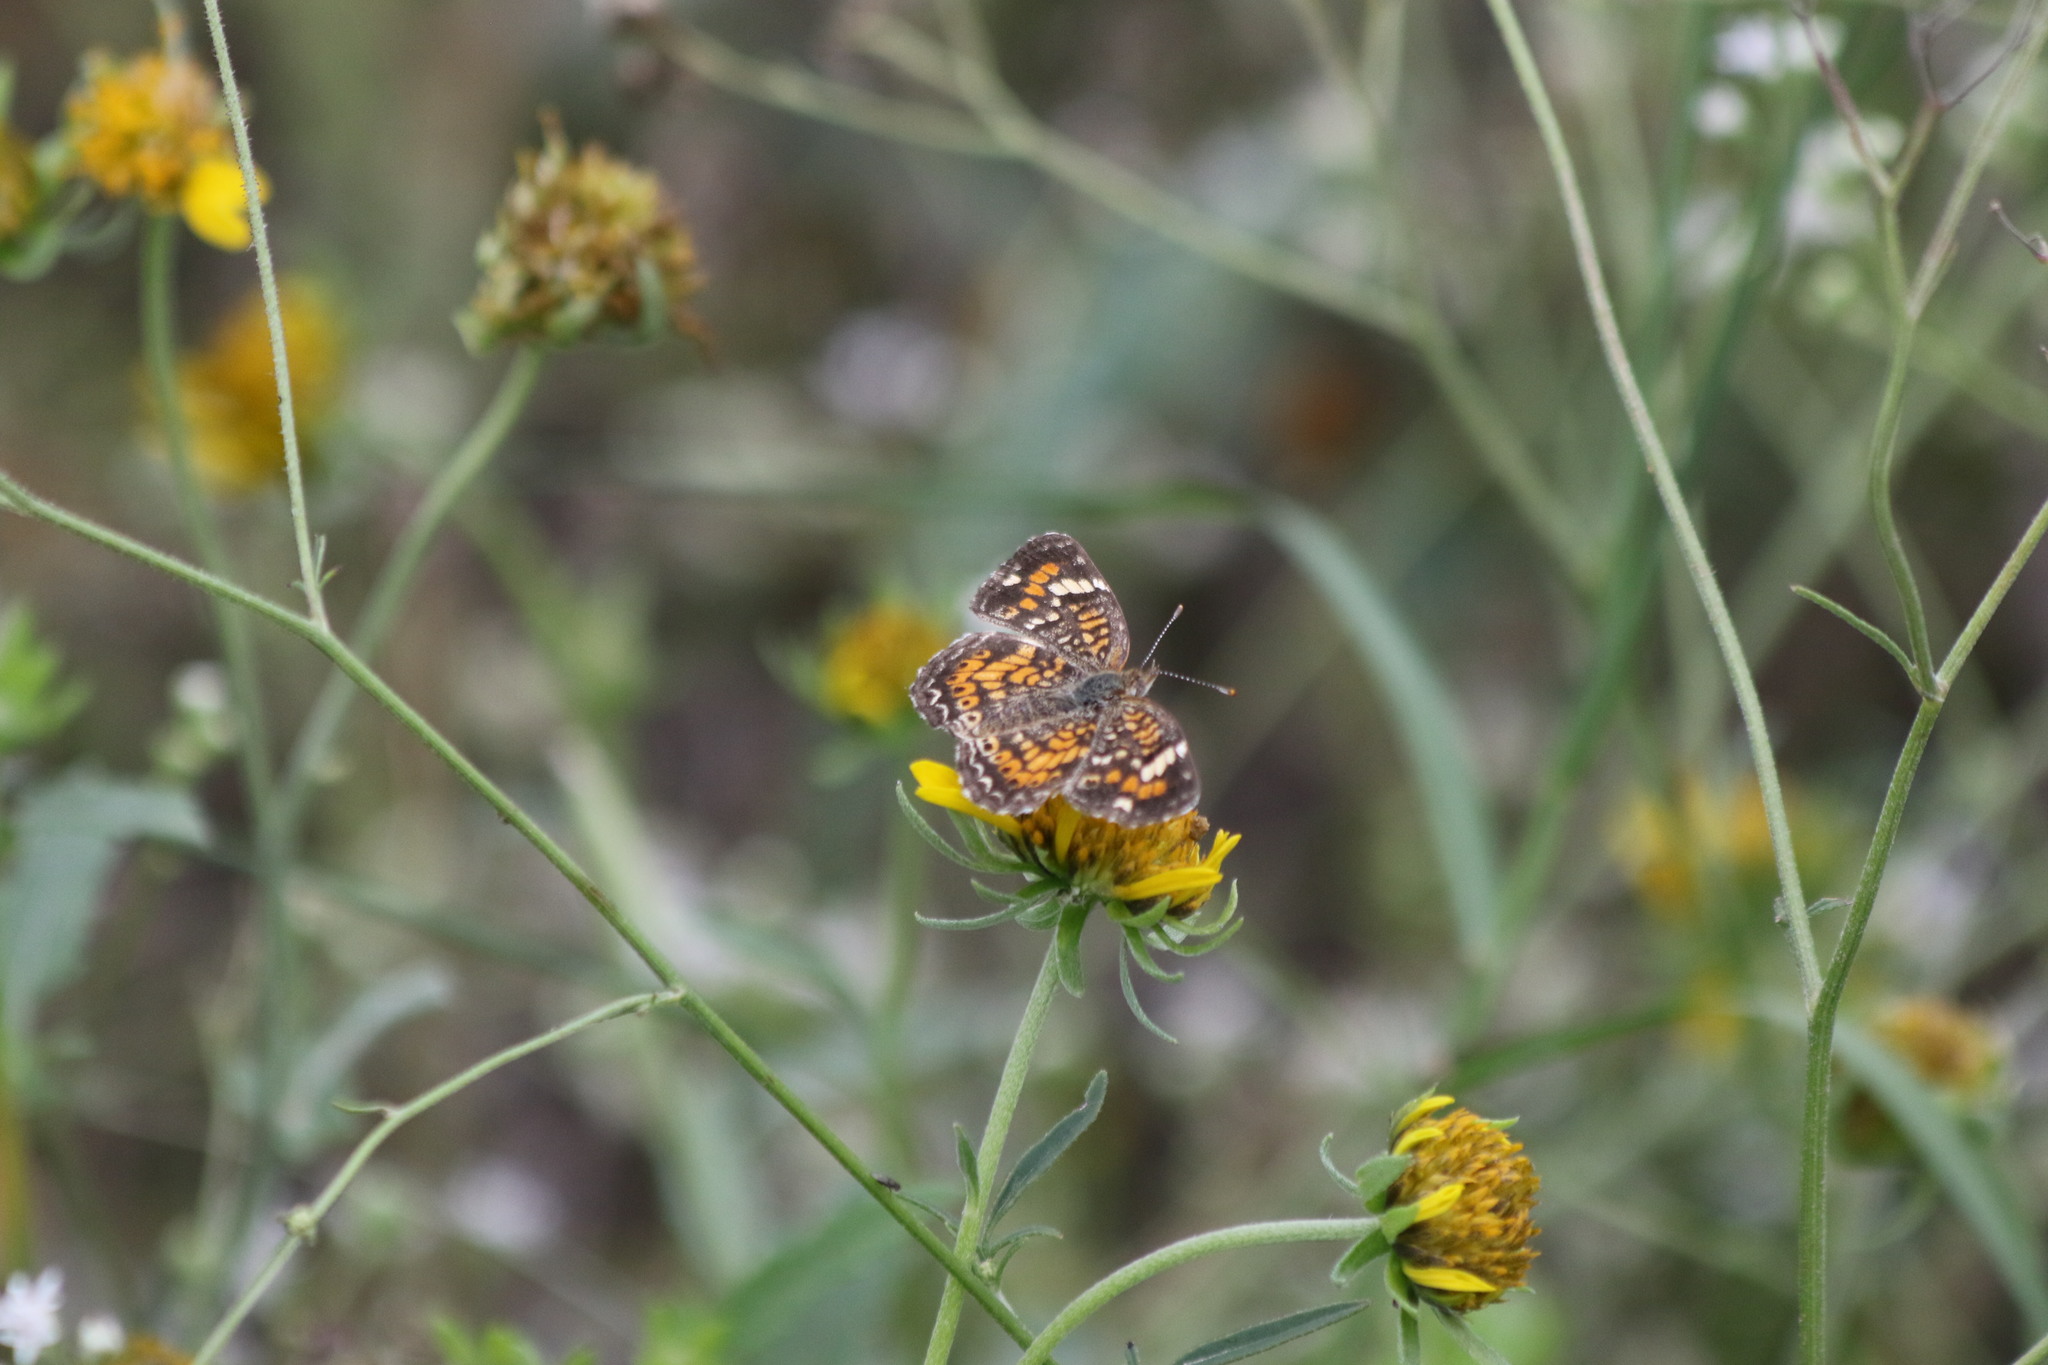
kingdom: Animalia
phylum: Arthropoda
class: Insecta
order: Lepidoptera
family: Nymphalidae
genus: Phyciodes
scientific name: Phyciodes phaon
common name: Phaon crescent
